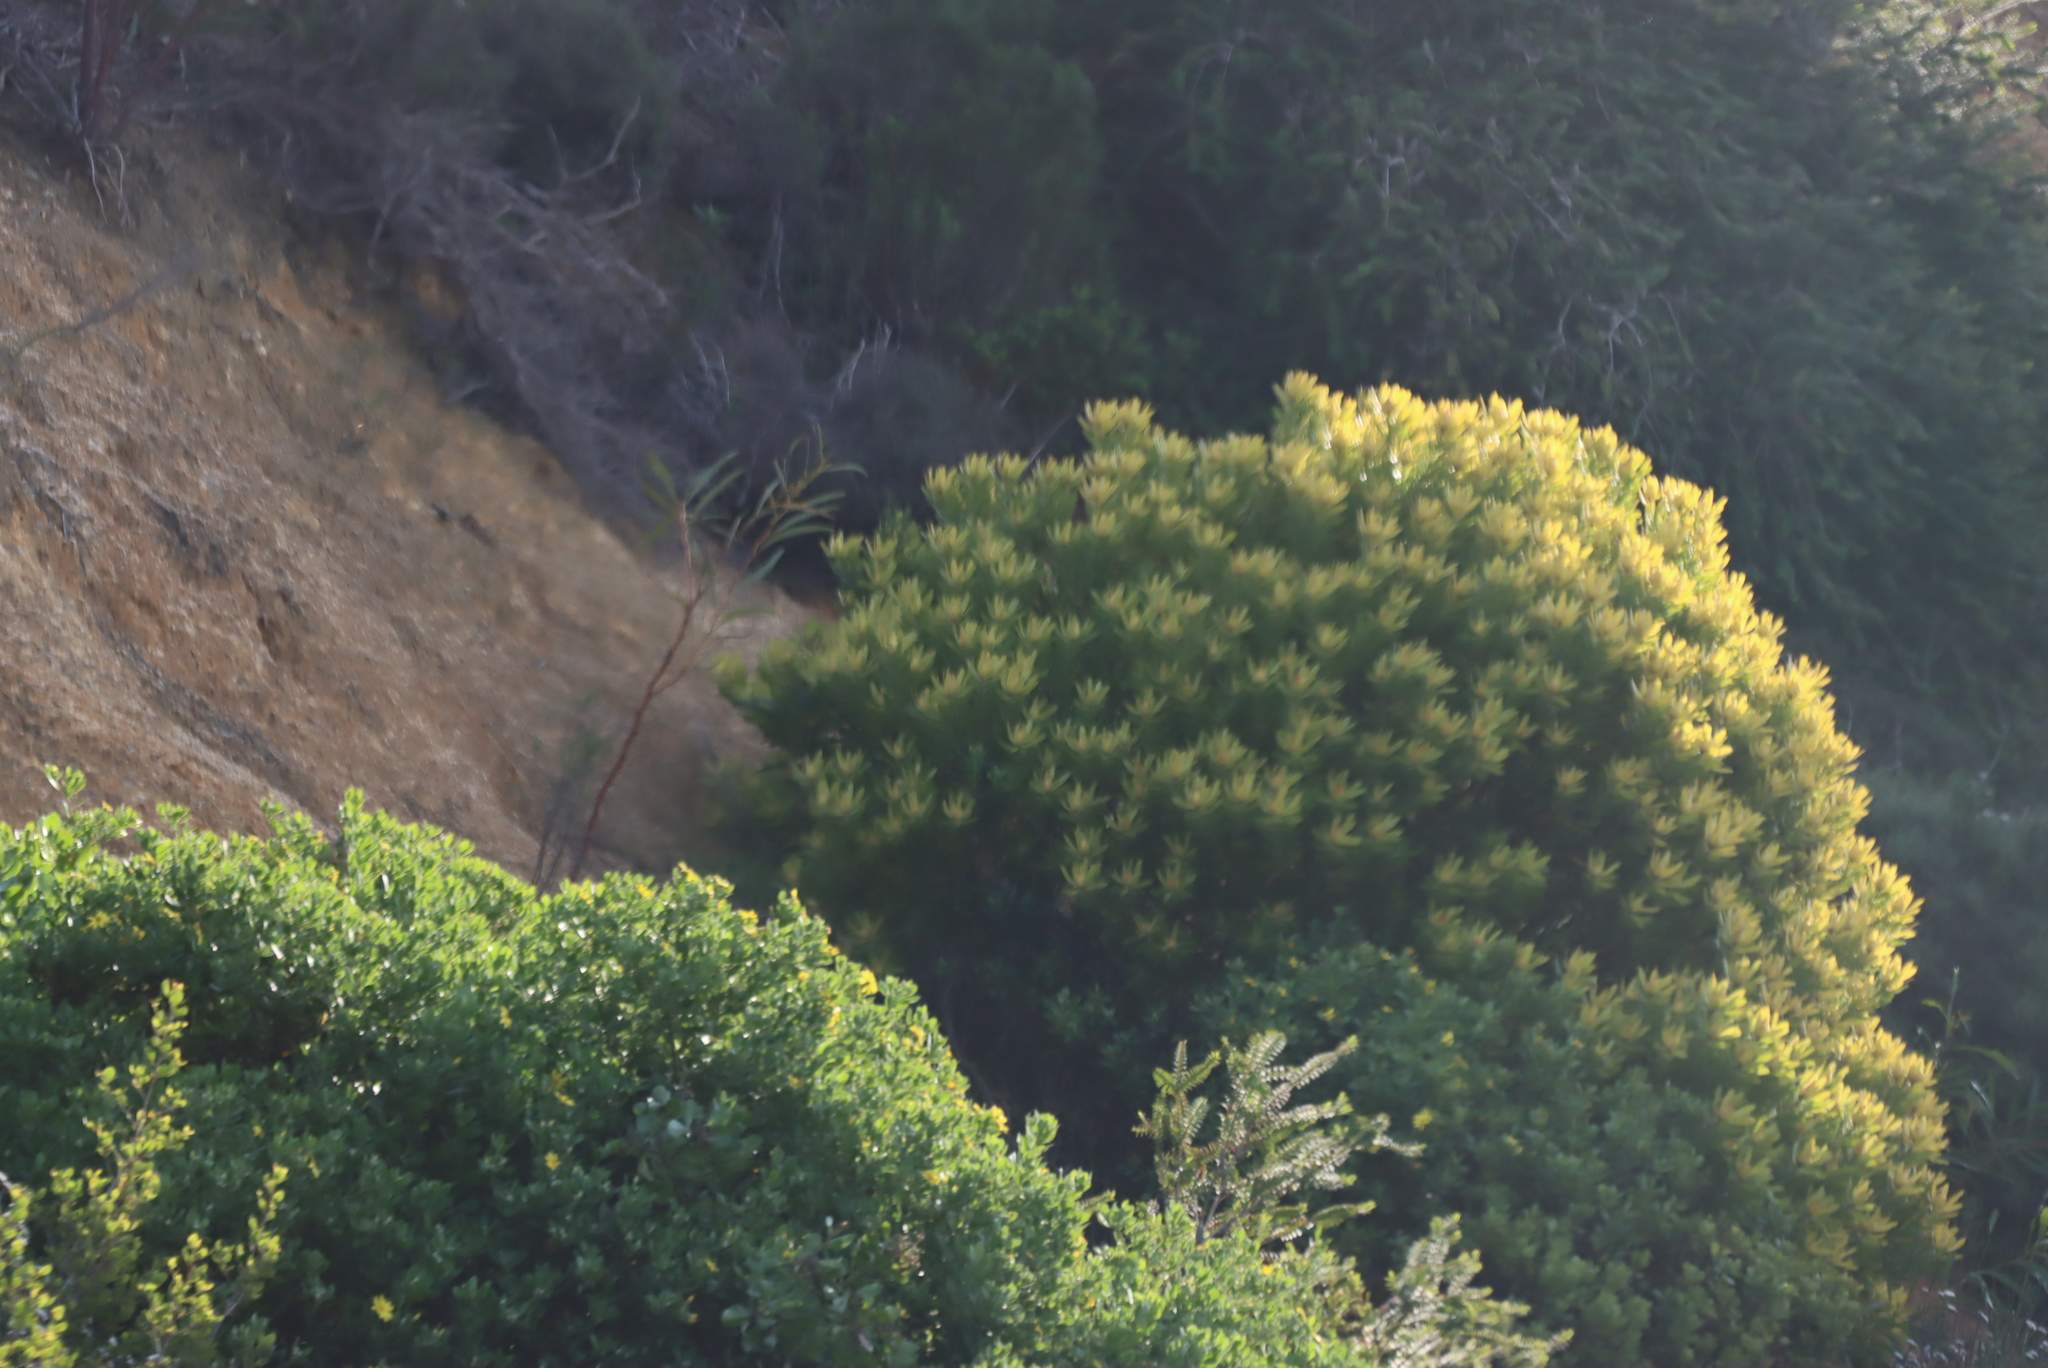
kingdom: Plantae
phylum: Tracheophyta
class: Magnoliopsida
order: Proteales
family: Proteaceae
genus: Leucadendron
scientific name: Leucadendron laureolum
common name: Golden sunshinebush
